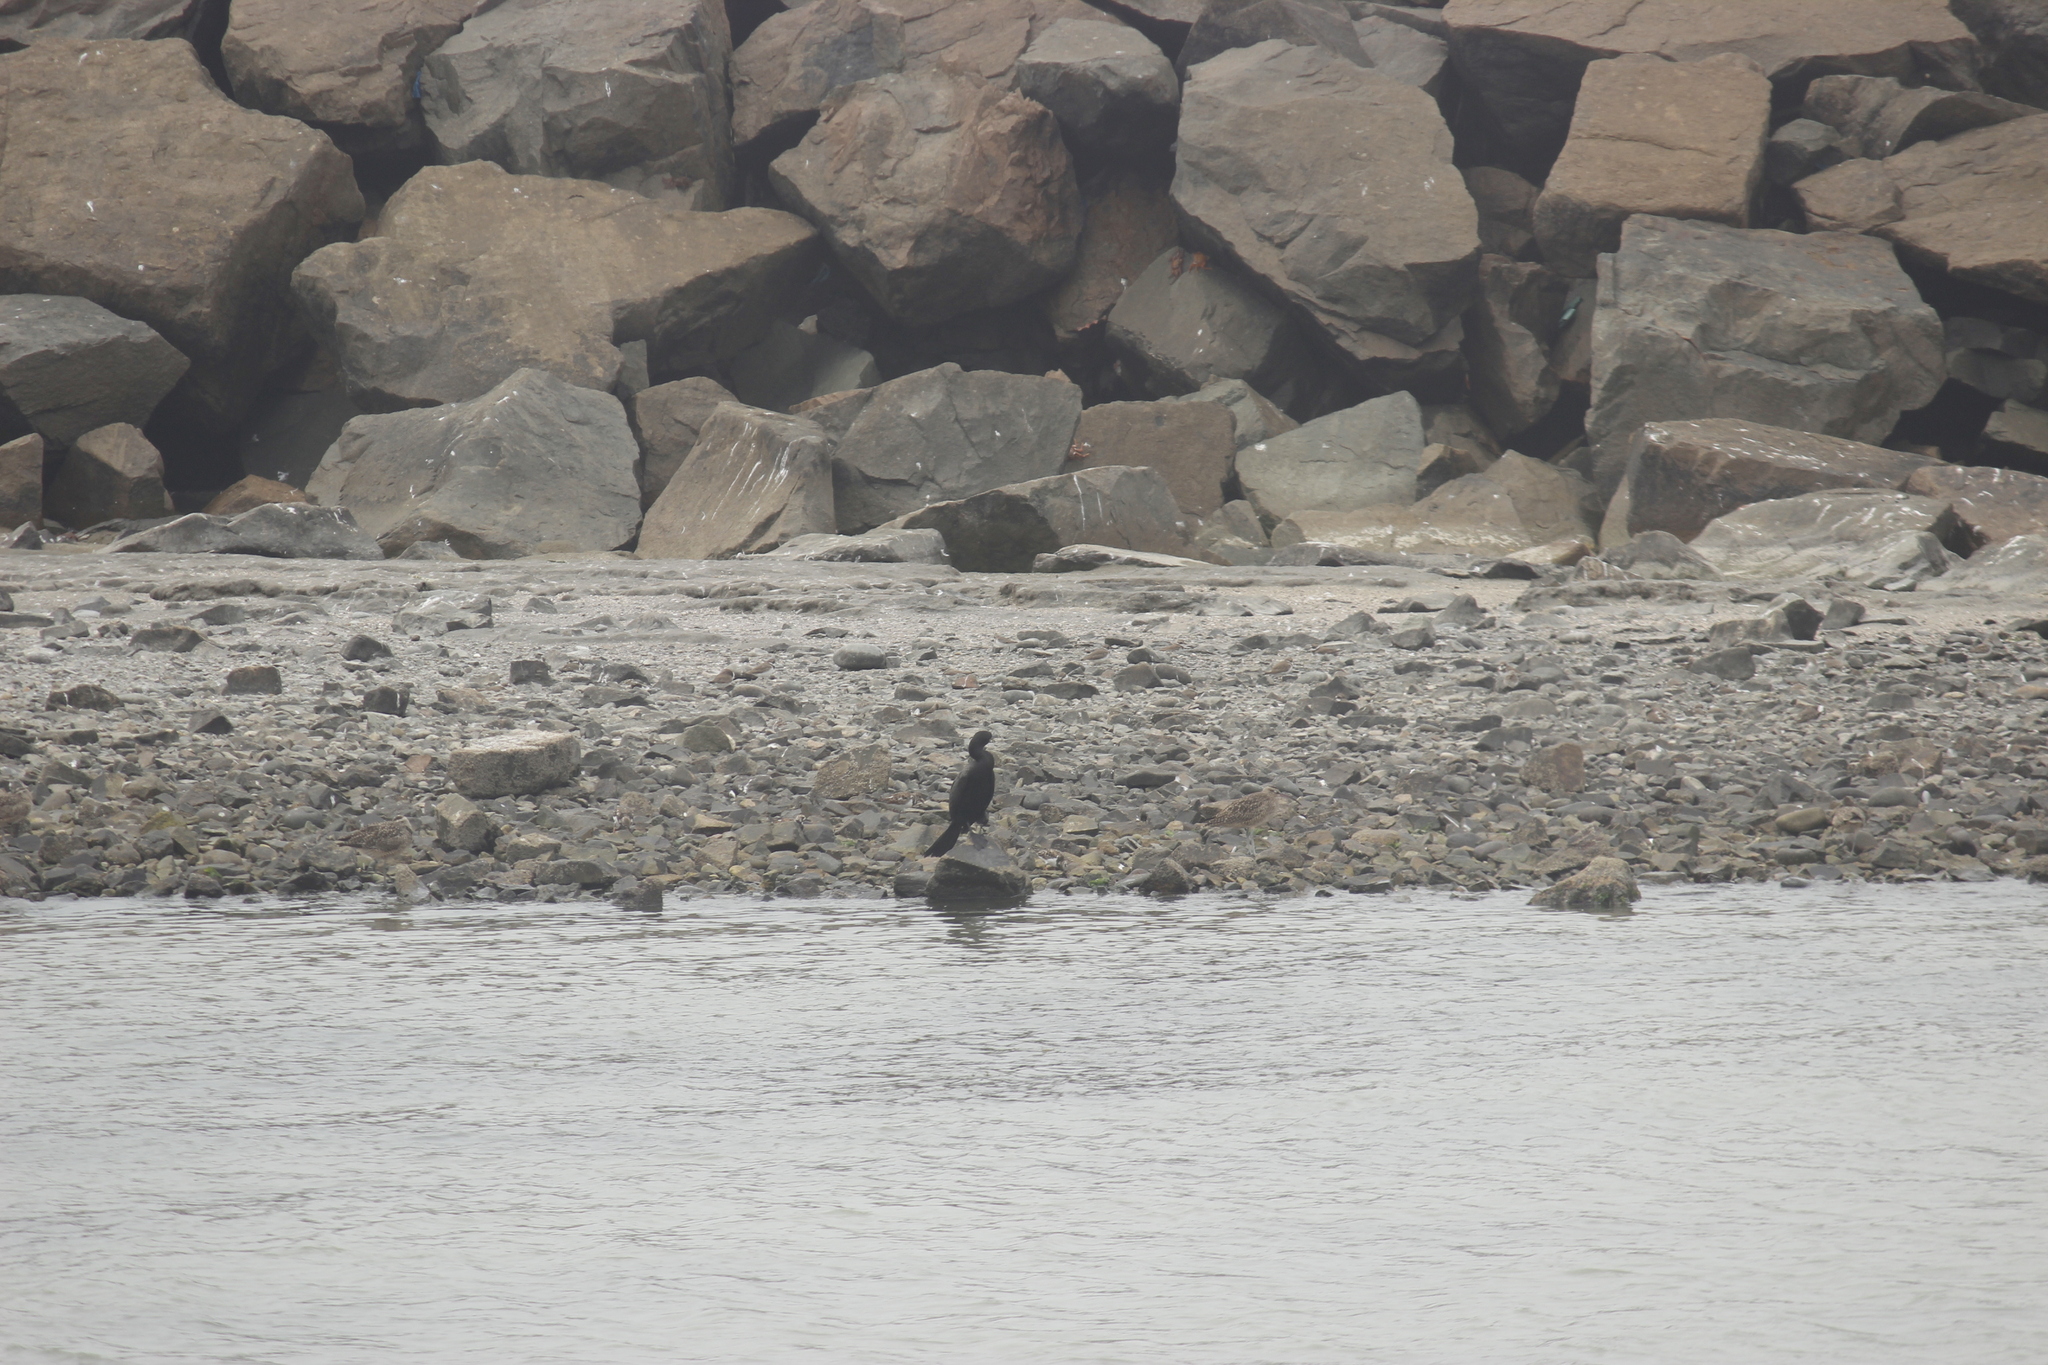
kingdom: Animalia
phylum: Chordata
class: Aves
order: Suliformes
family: Phalacrocoracidae
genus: Phalacrocorax
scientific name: Phalacrocorax brasilianus
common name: Neotropic cormorant
